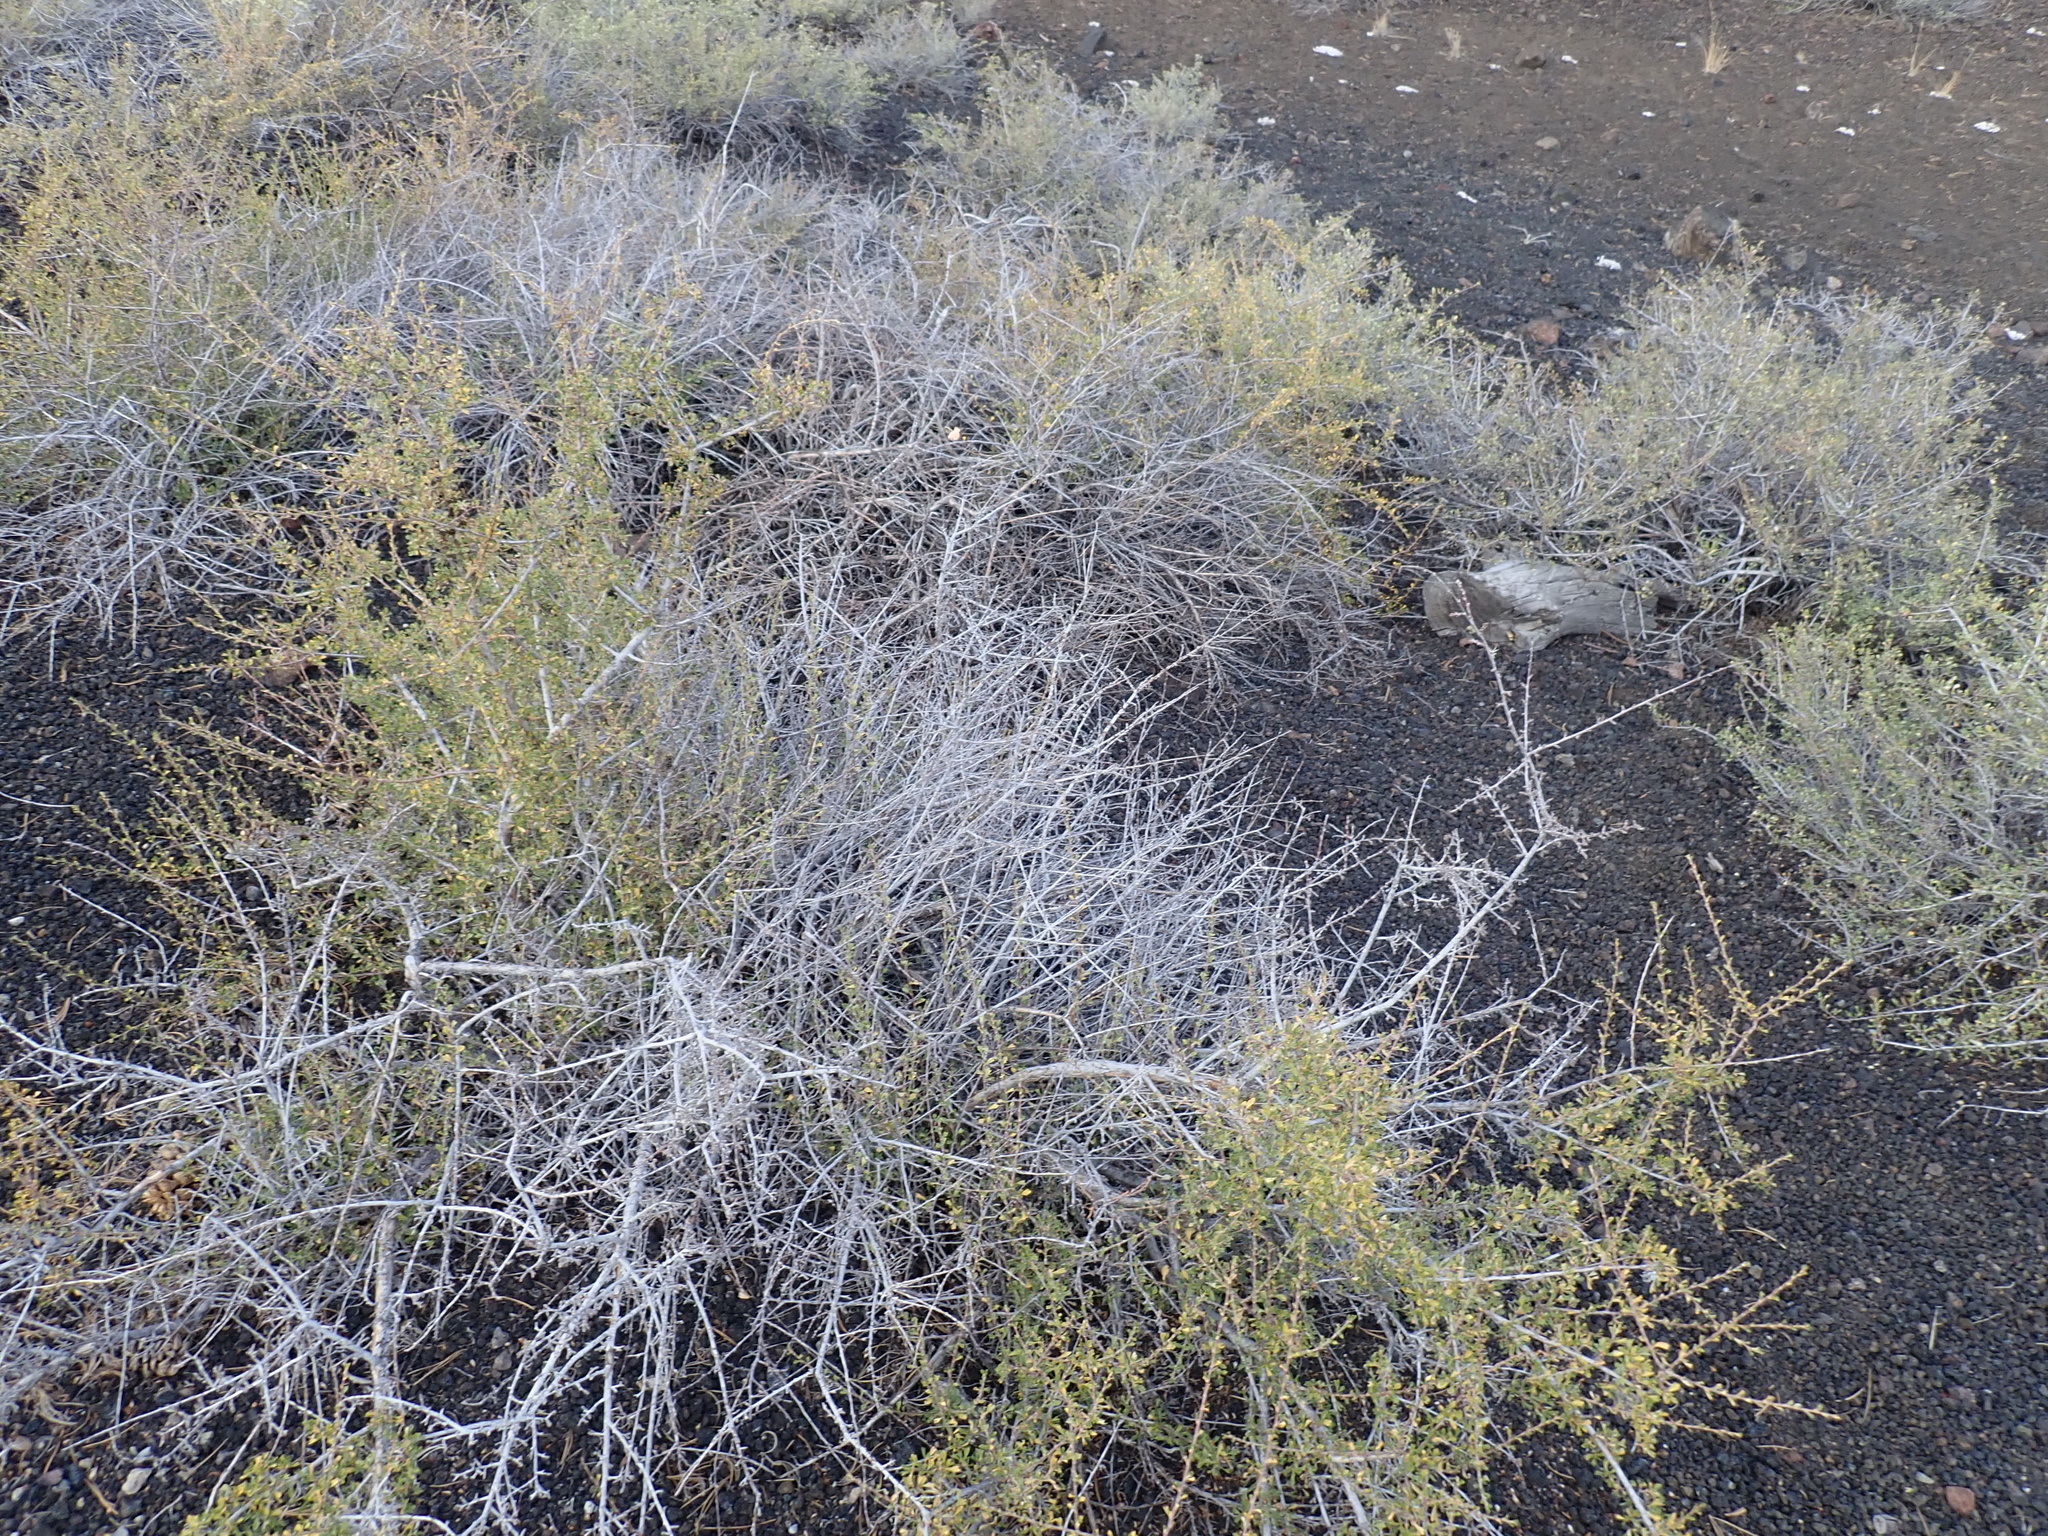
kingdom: Plantae
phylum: Tracheophyta
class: Magnoliopsida
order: Rosales
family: Rosaceae
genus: Purshia
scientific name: Purshia tridentata
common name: Antelope bitterbrush
